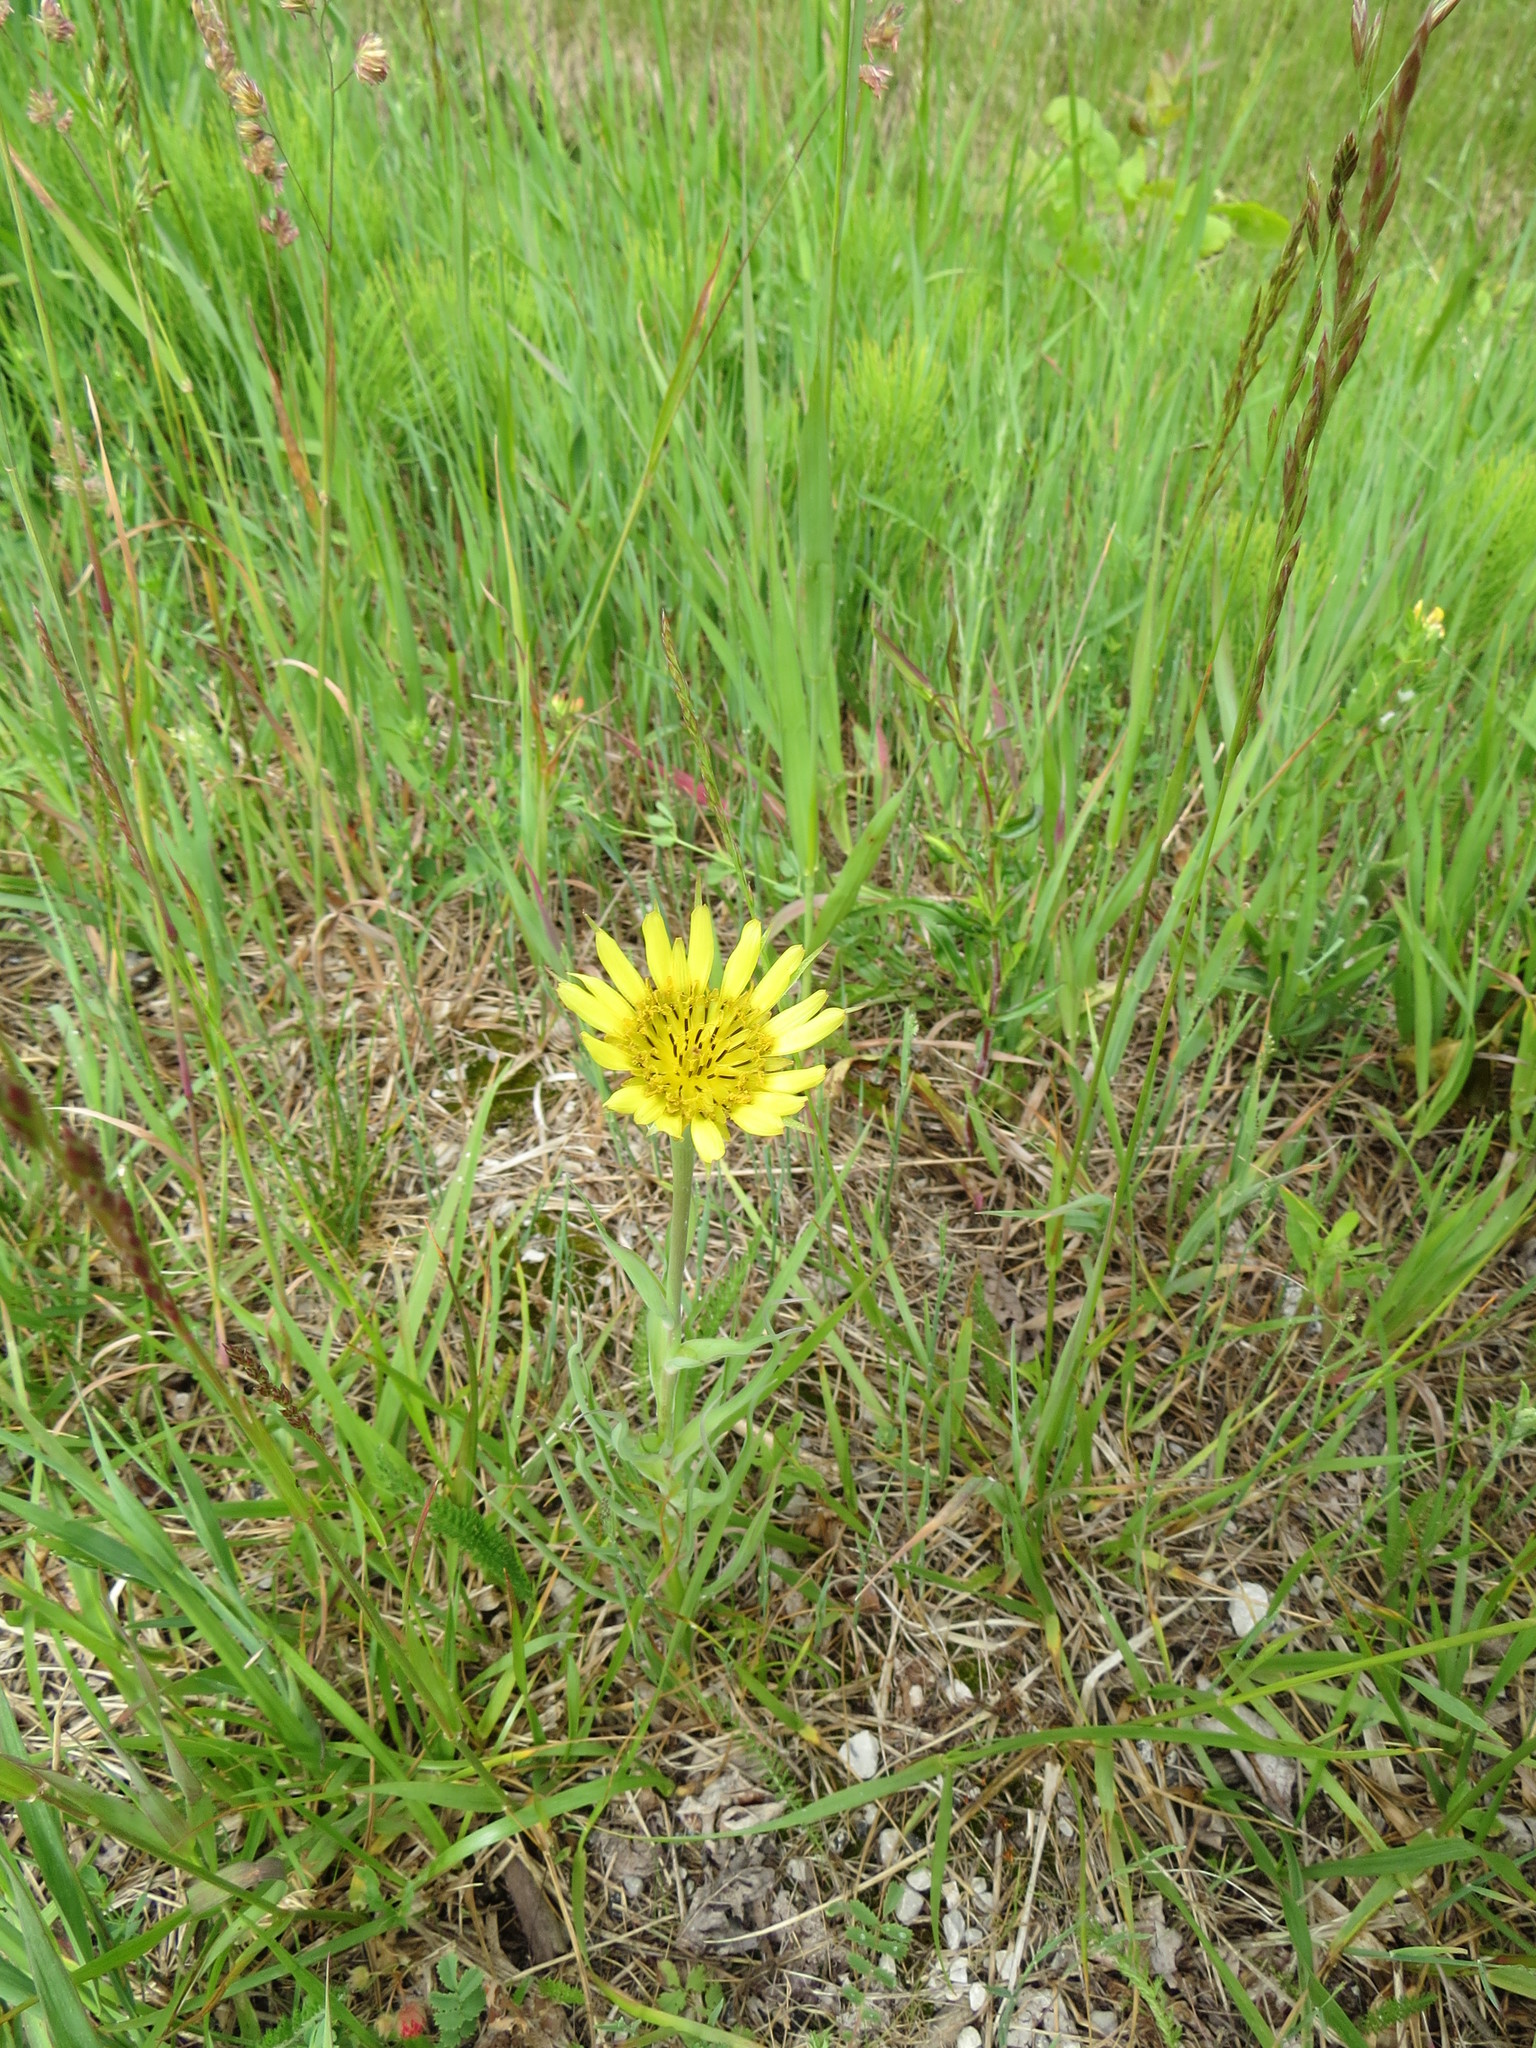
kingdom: Plantae
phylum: Tracheophyta
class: Magnoliopsida
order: Asterales
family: Asteraceae
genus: Tragopogon
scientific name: Tragopogon dubius
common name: Yellow salsify
